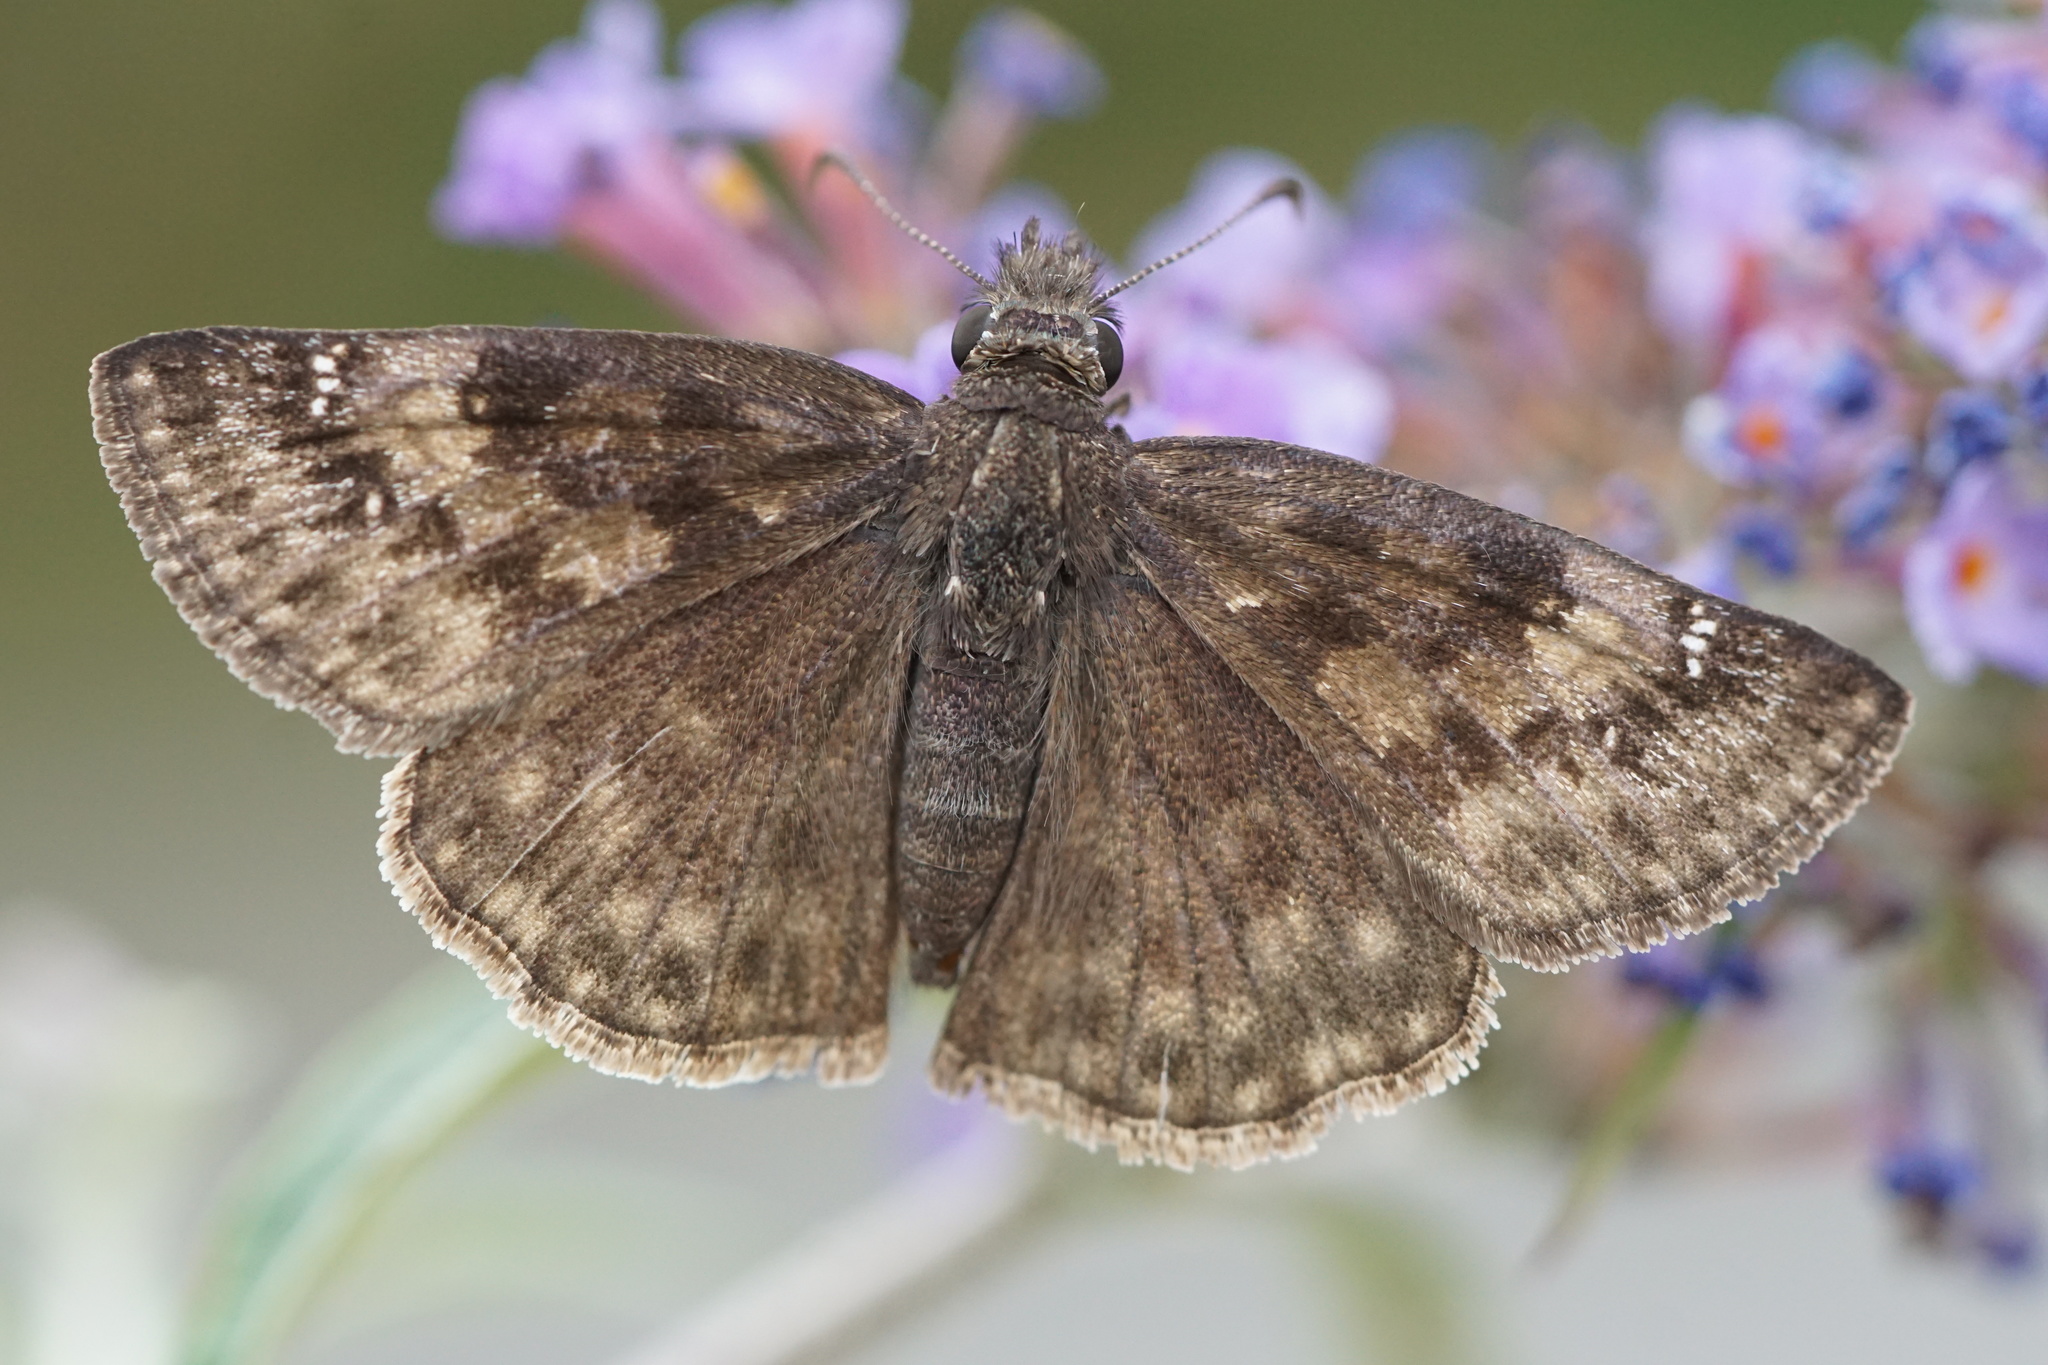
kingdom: Animalia
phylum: Arthropoda
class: Insecta
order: Lepidoptera
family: Hesperiidae
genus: Erynnis
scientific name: Erynnis baptisiae
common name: Wild indigo duskywing
